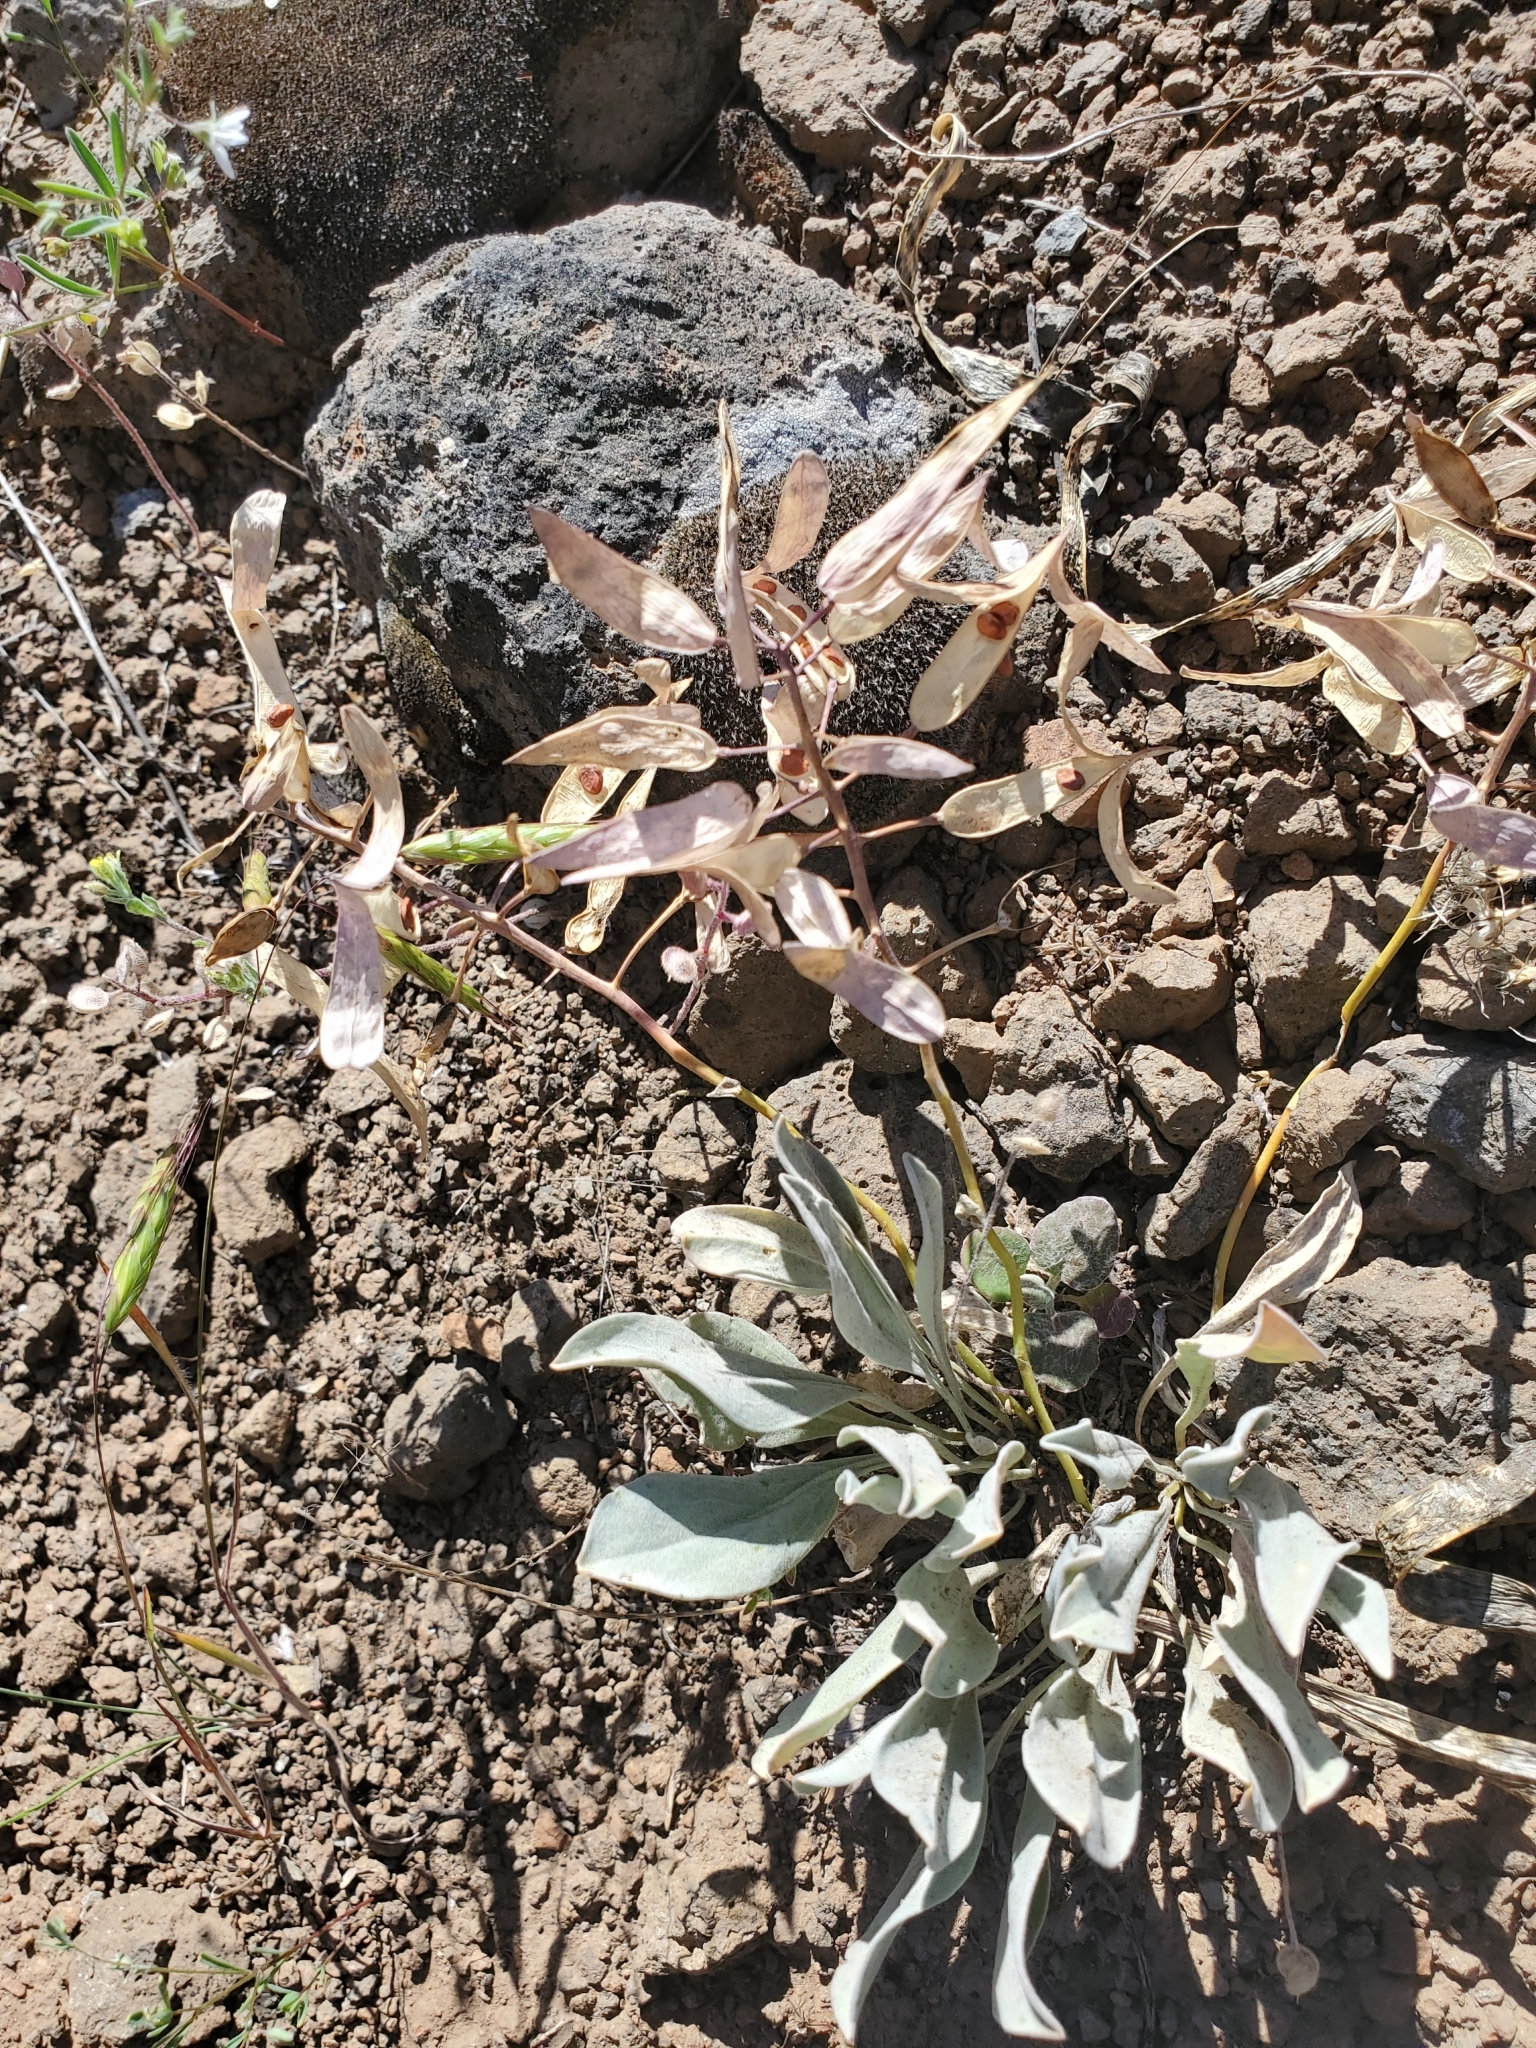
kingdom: Plantae
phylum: Tracheophyta
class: Magnoliopsida
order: Brassicales
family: Brassicaceae
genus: Phoenicaulis
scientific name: Phoenicaulis cheiranthoides
